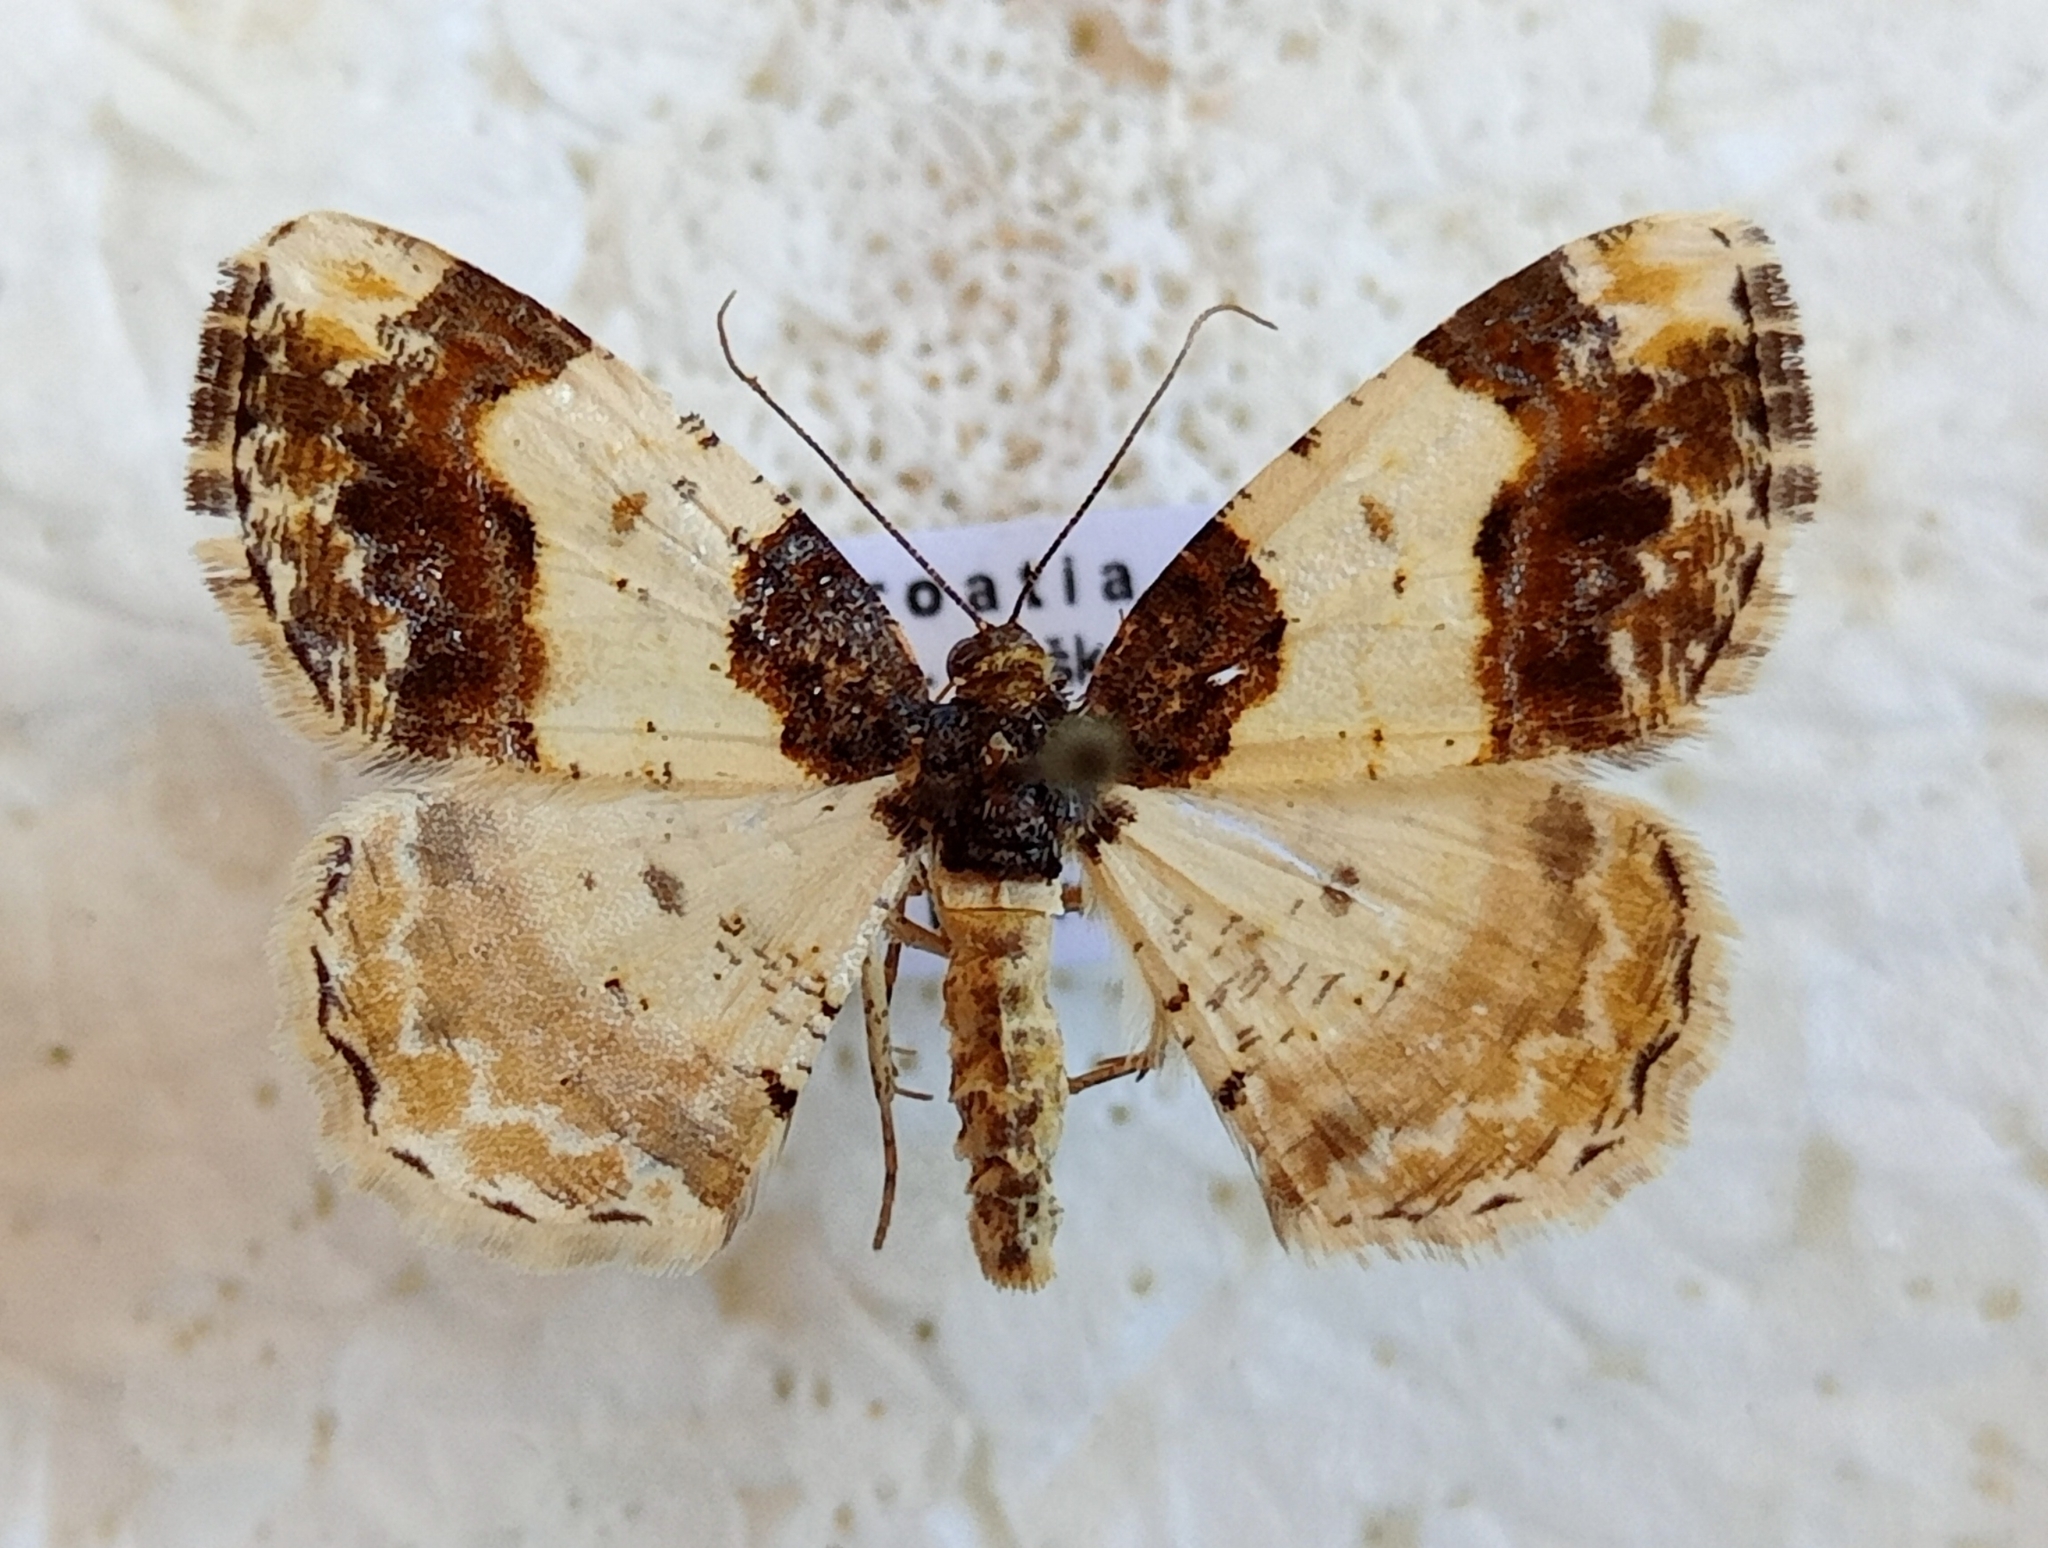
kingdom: Animalia
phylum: Arthropoda
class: Insecta
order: Lepidoptera
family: Geometridae
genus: Ligdia
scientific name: Ligdia adustata
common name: Scorched carpet
